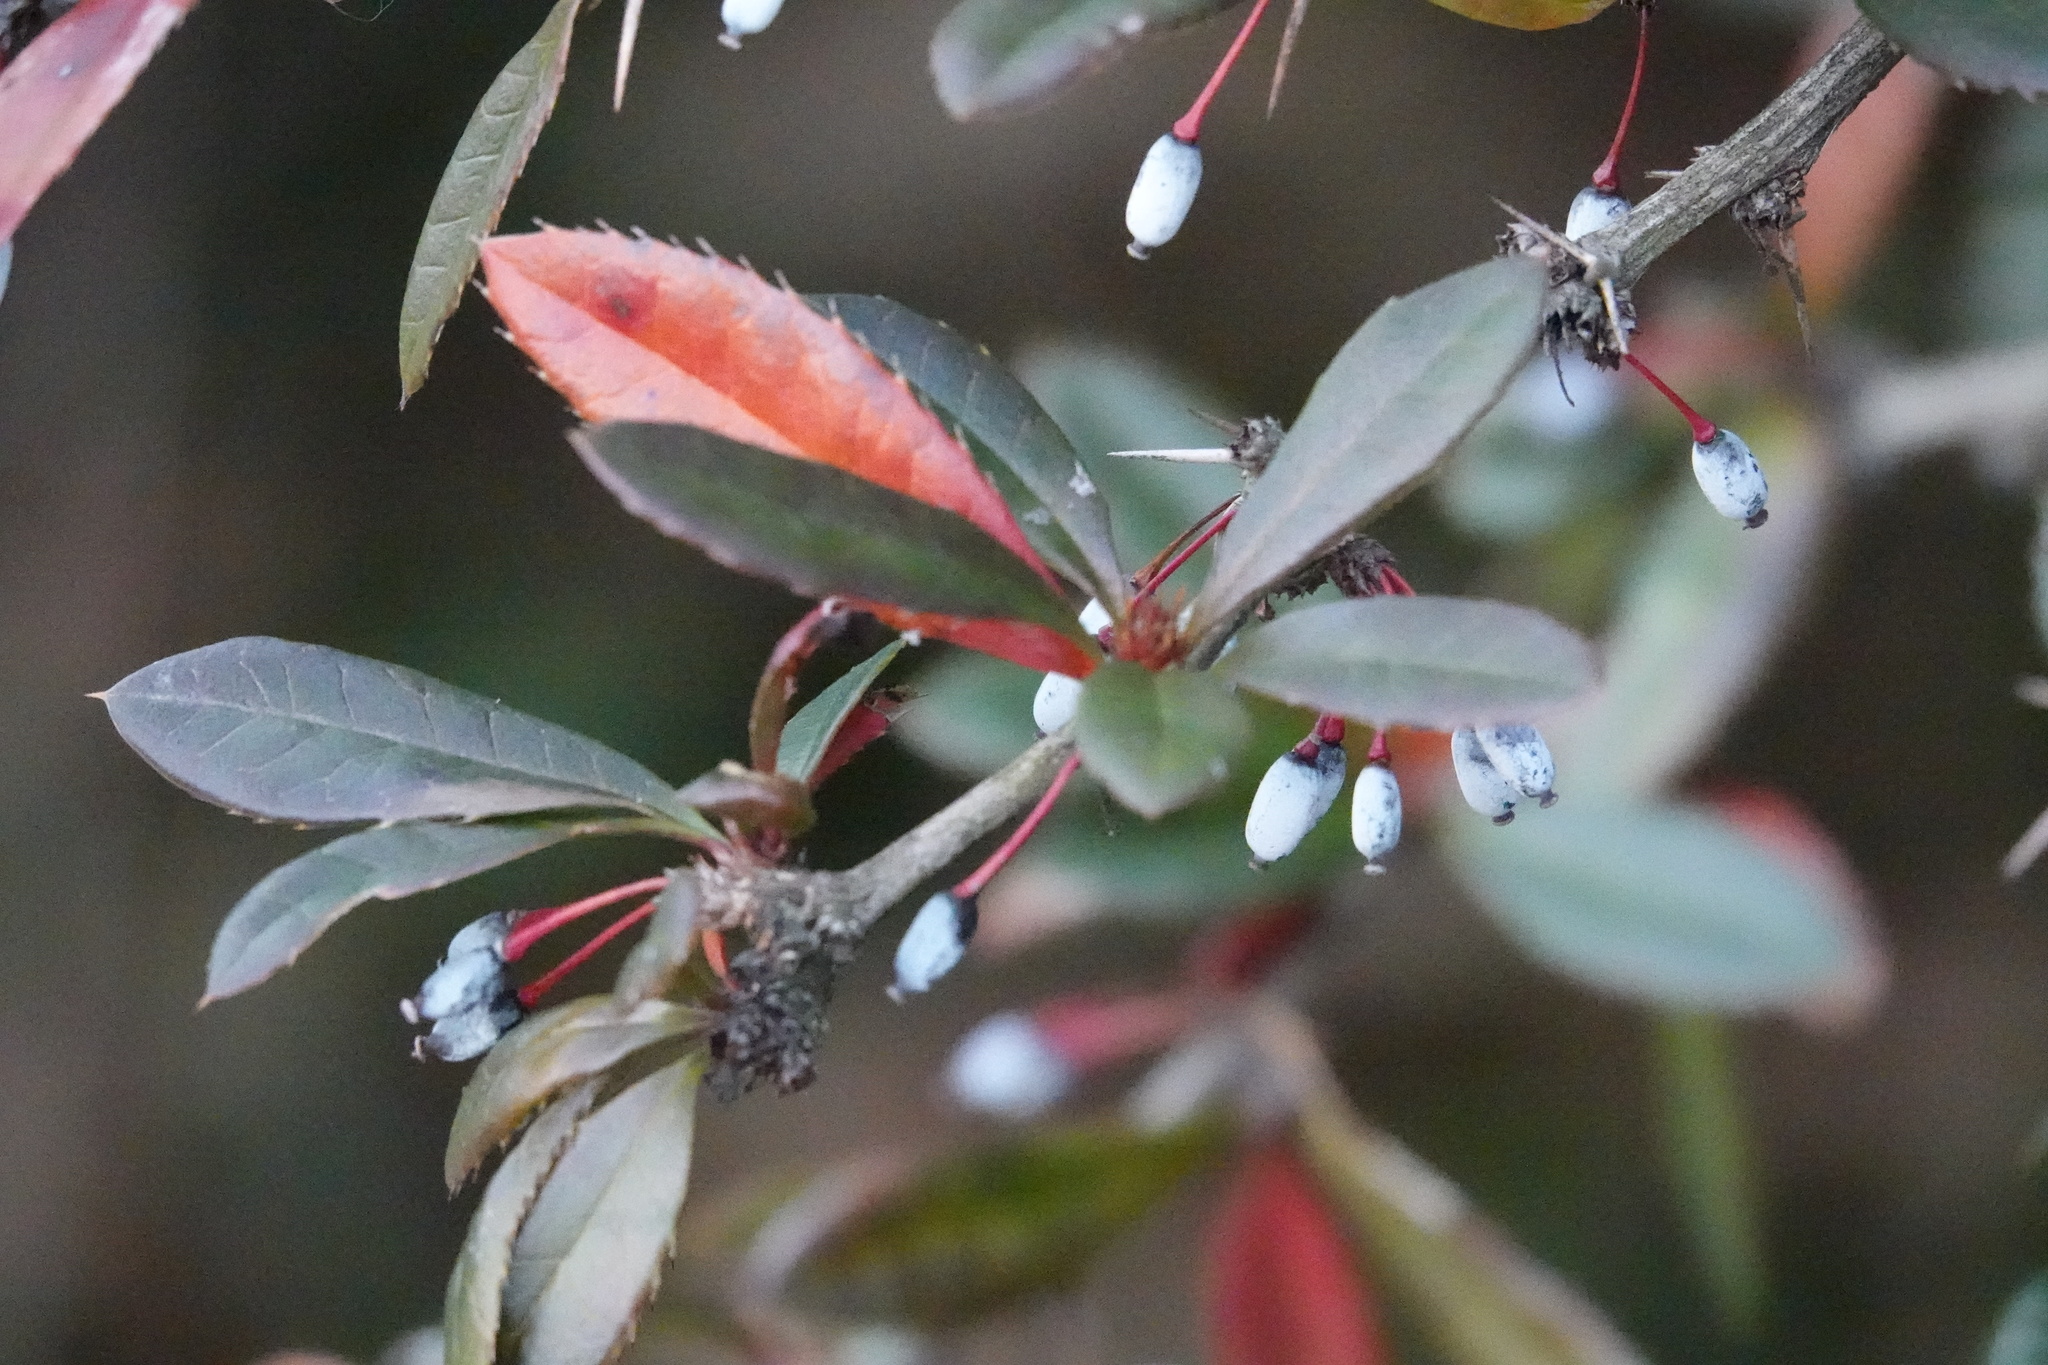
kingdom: Plantae
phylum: Tracheophyta
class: Magnoliopsida
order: Ranunculales
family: Berberidaceae
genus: Berberis
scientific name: Berberis julianae
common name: Wintergreen barberry
